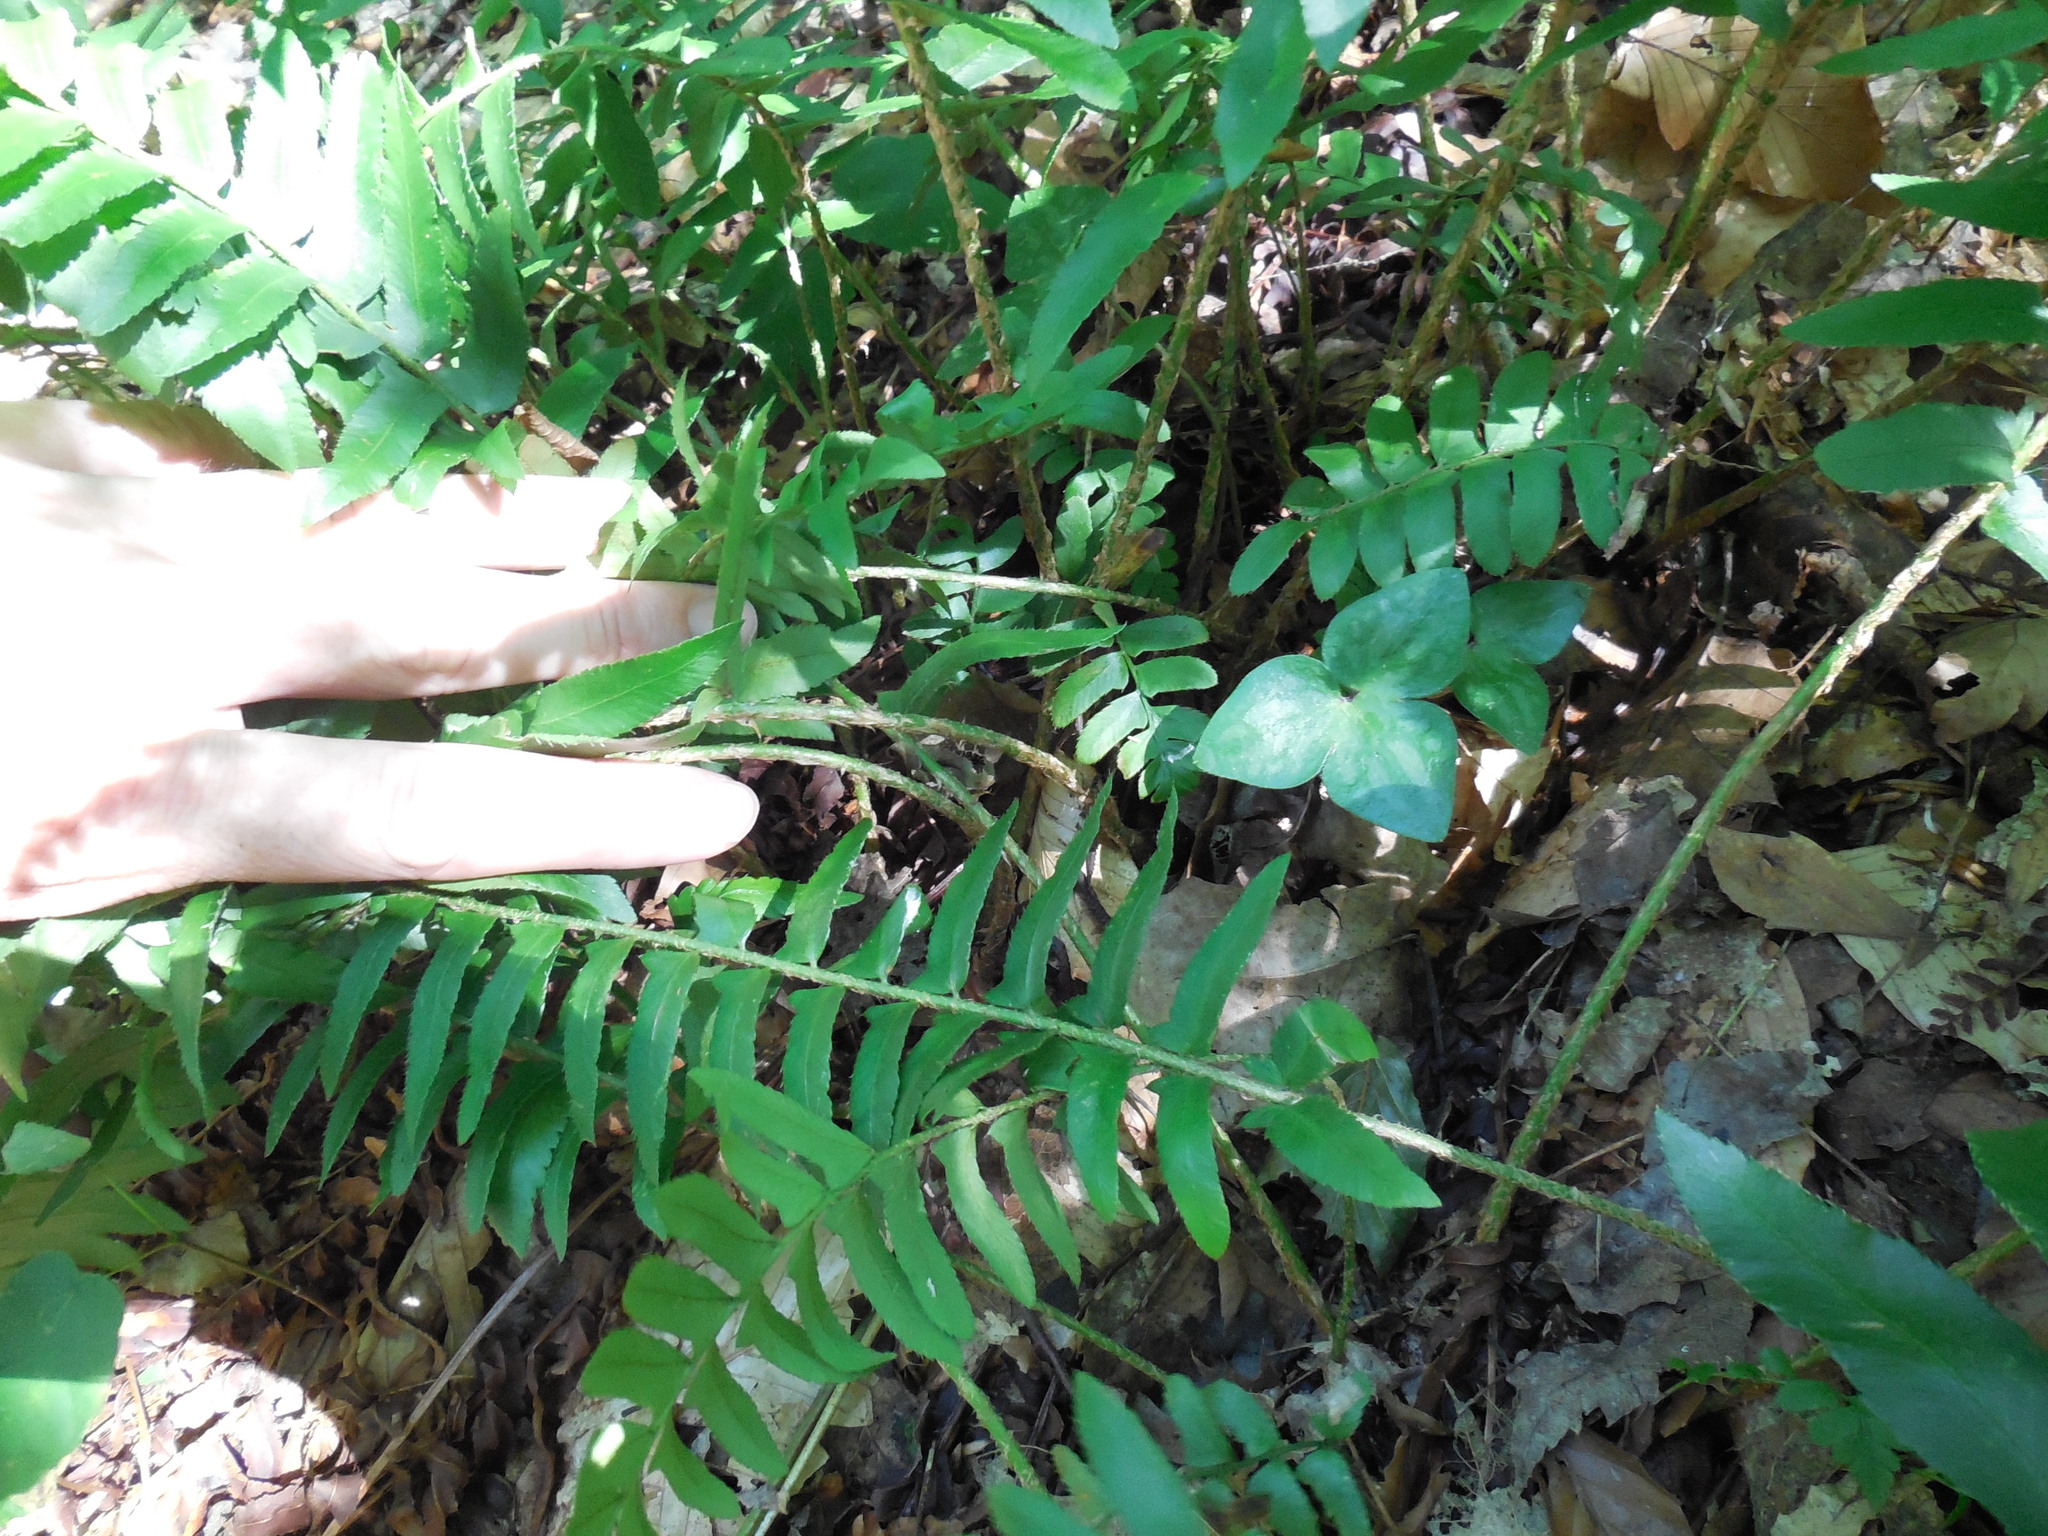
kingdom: Plantae
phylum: Tracheophyta
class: Polypodiopsida
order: Polypodiales
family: Dryopteridaceae
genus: Polystichum
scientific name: Polystichum acrostichoides
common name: Christmas fern
